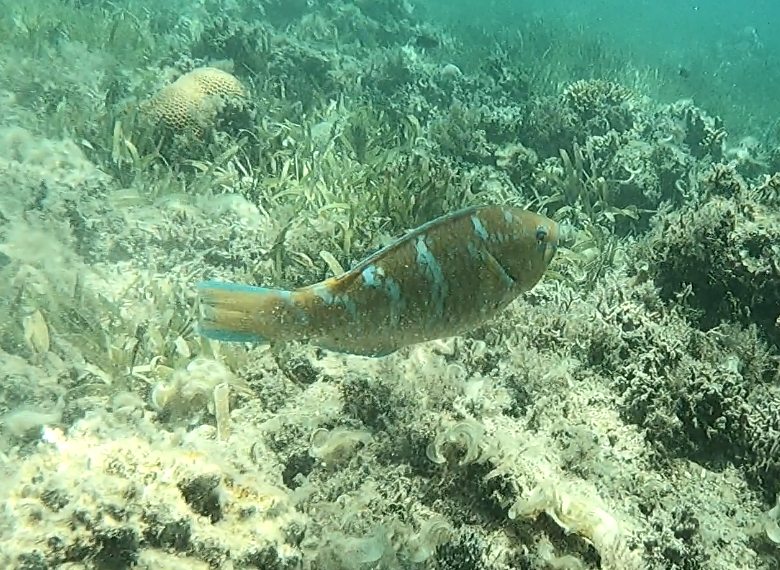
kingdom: Animalia
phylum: Chordata
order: Perciformes
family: Scaridae
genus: Scarus
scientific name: Scarus ghobban
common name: Blue-barred parrotfish
